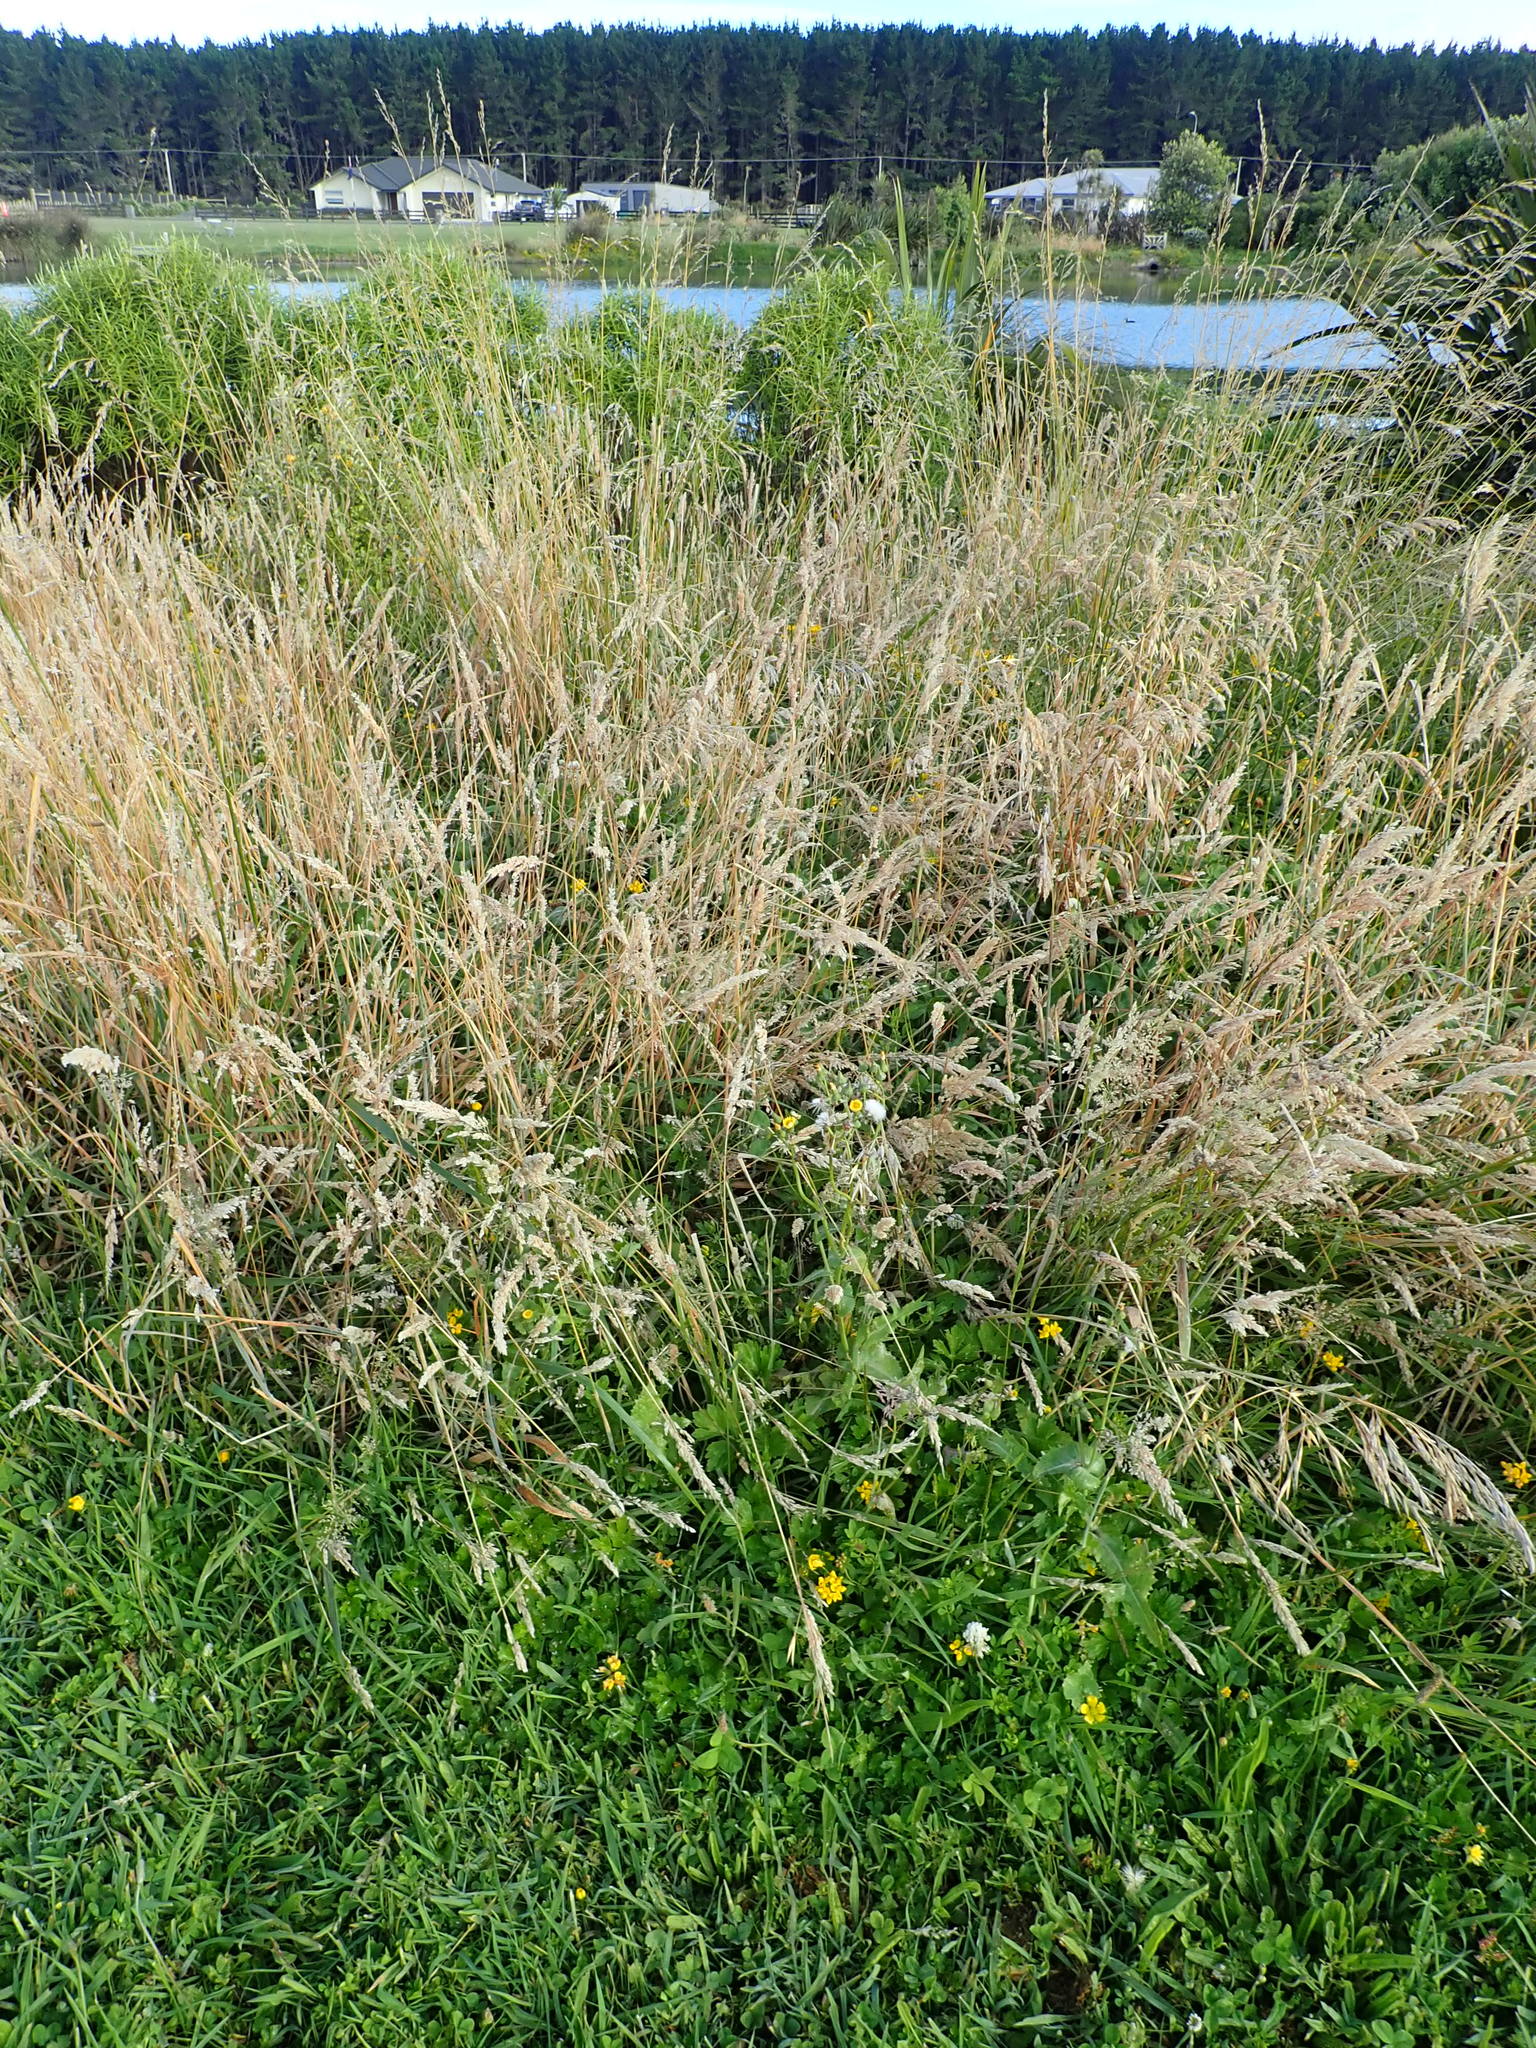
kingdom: Plantae
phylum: Tracheophyta
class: Magnoliopsida
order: Asterales
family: Asteraceae
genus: Sonchus
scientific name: Sonchus asper
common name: Prickly sow-thistle
